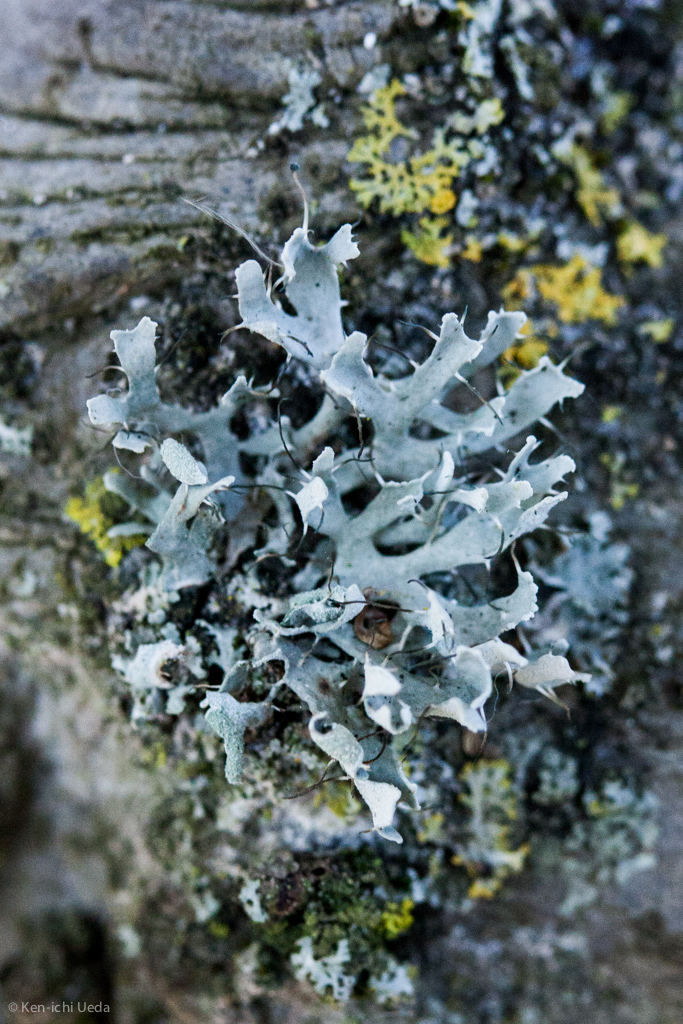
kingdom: Fungi
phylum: Ascomycota
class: Lecanoromycetes
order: Caliciales
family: Physciaceae
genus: Leucodermia
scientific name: Leucodermia leucomelos
